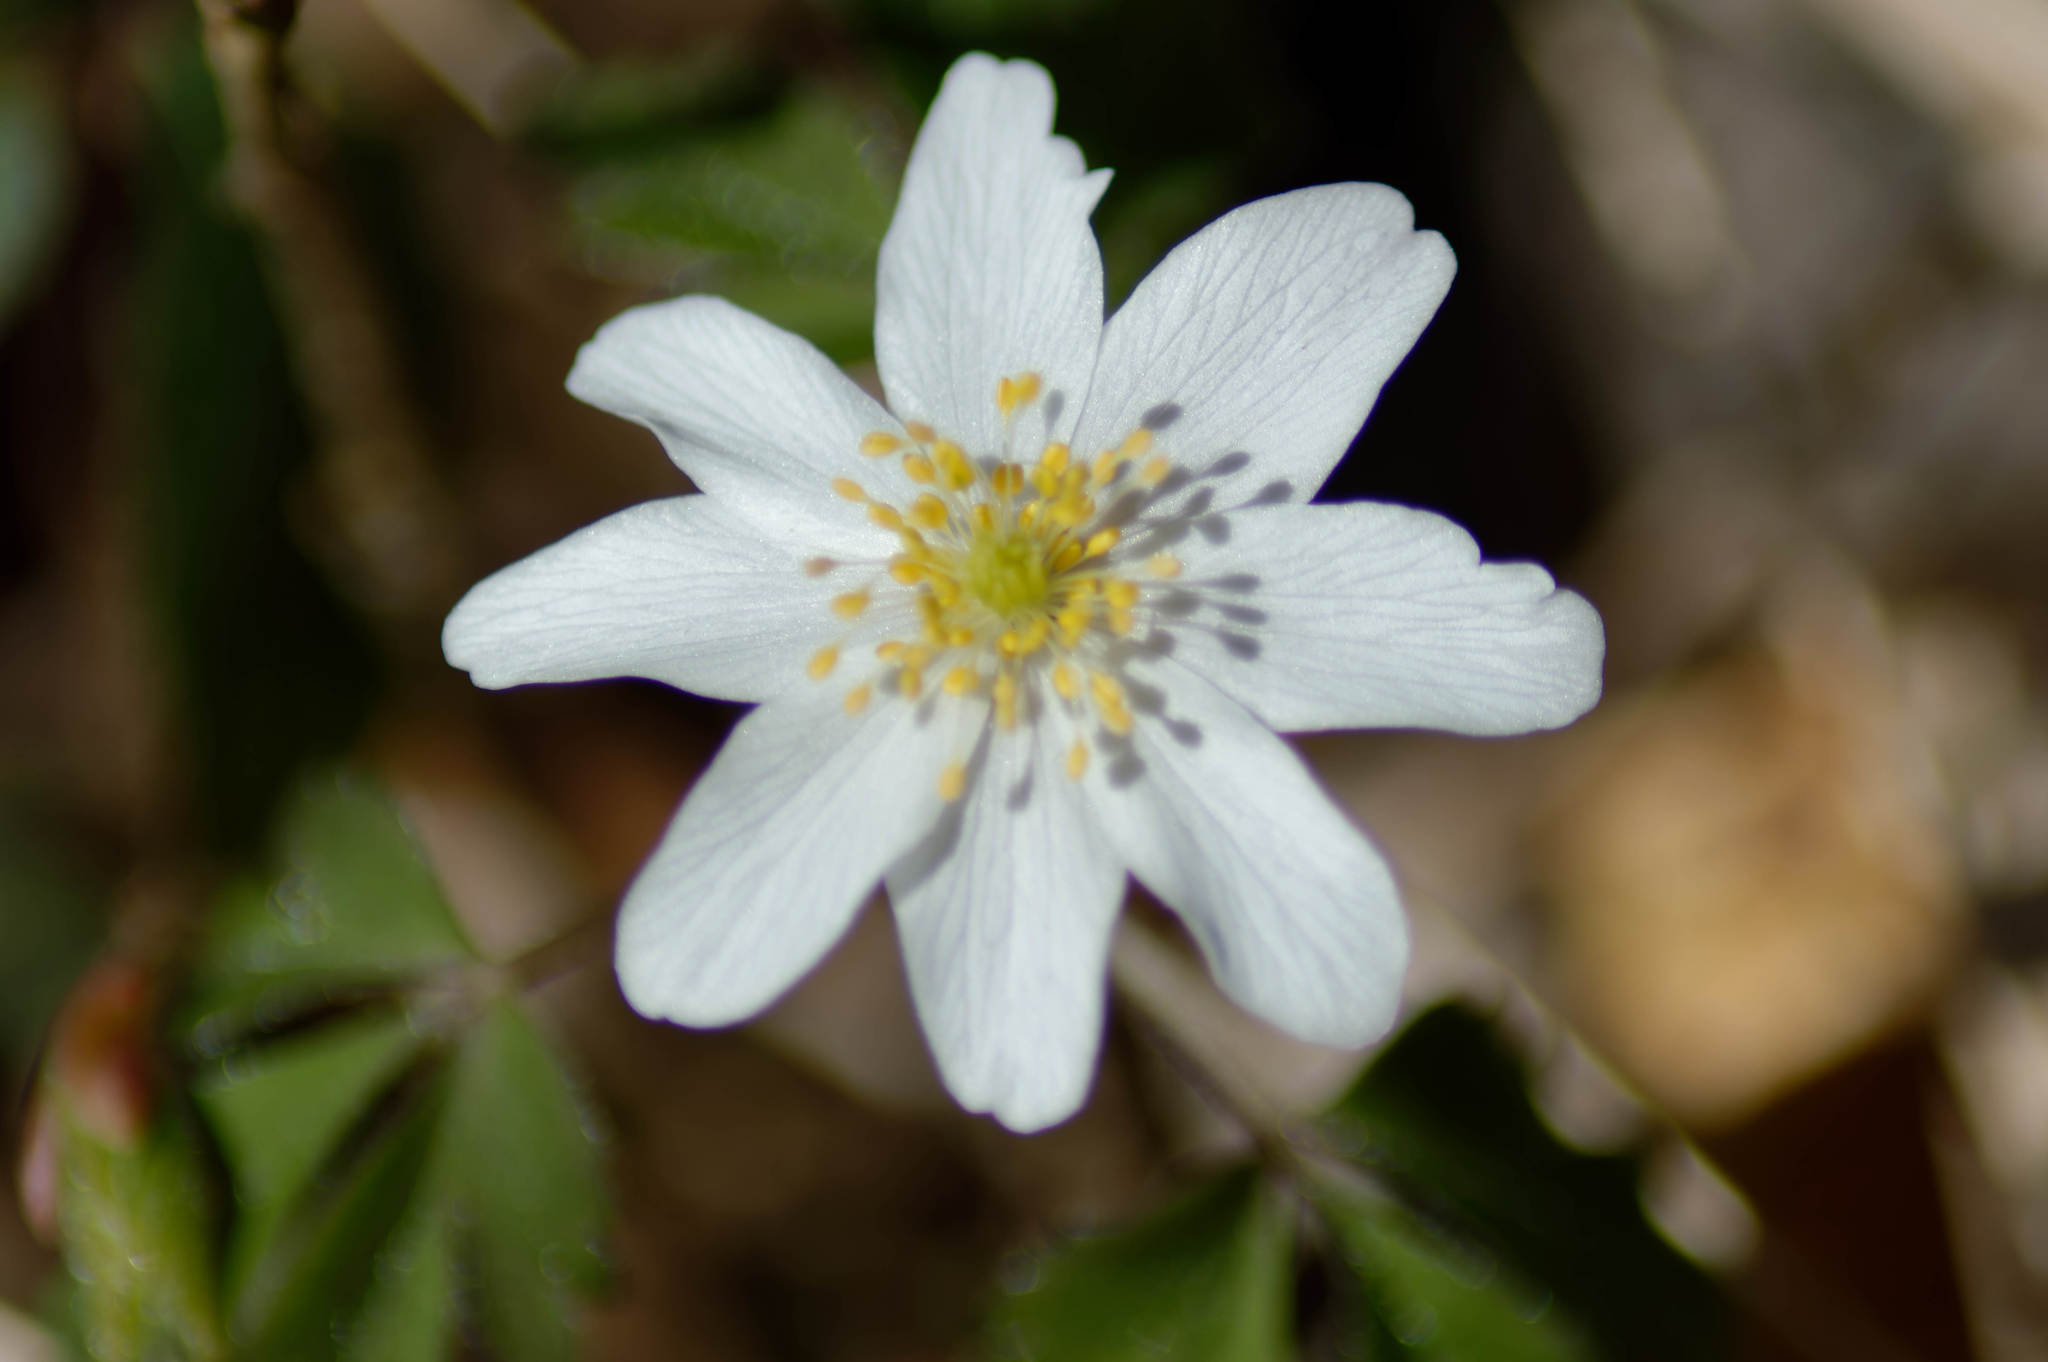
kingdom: Plantae
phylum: Tracheophyta
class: Magnoliopsida
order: Ranunculales
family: Ranunculaceae
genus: Anemone
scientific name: Anemone nemorosa
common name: Wood anemone
